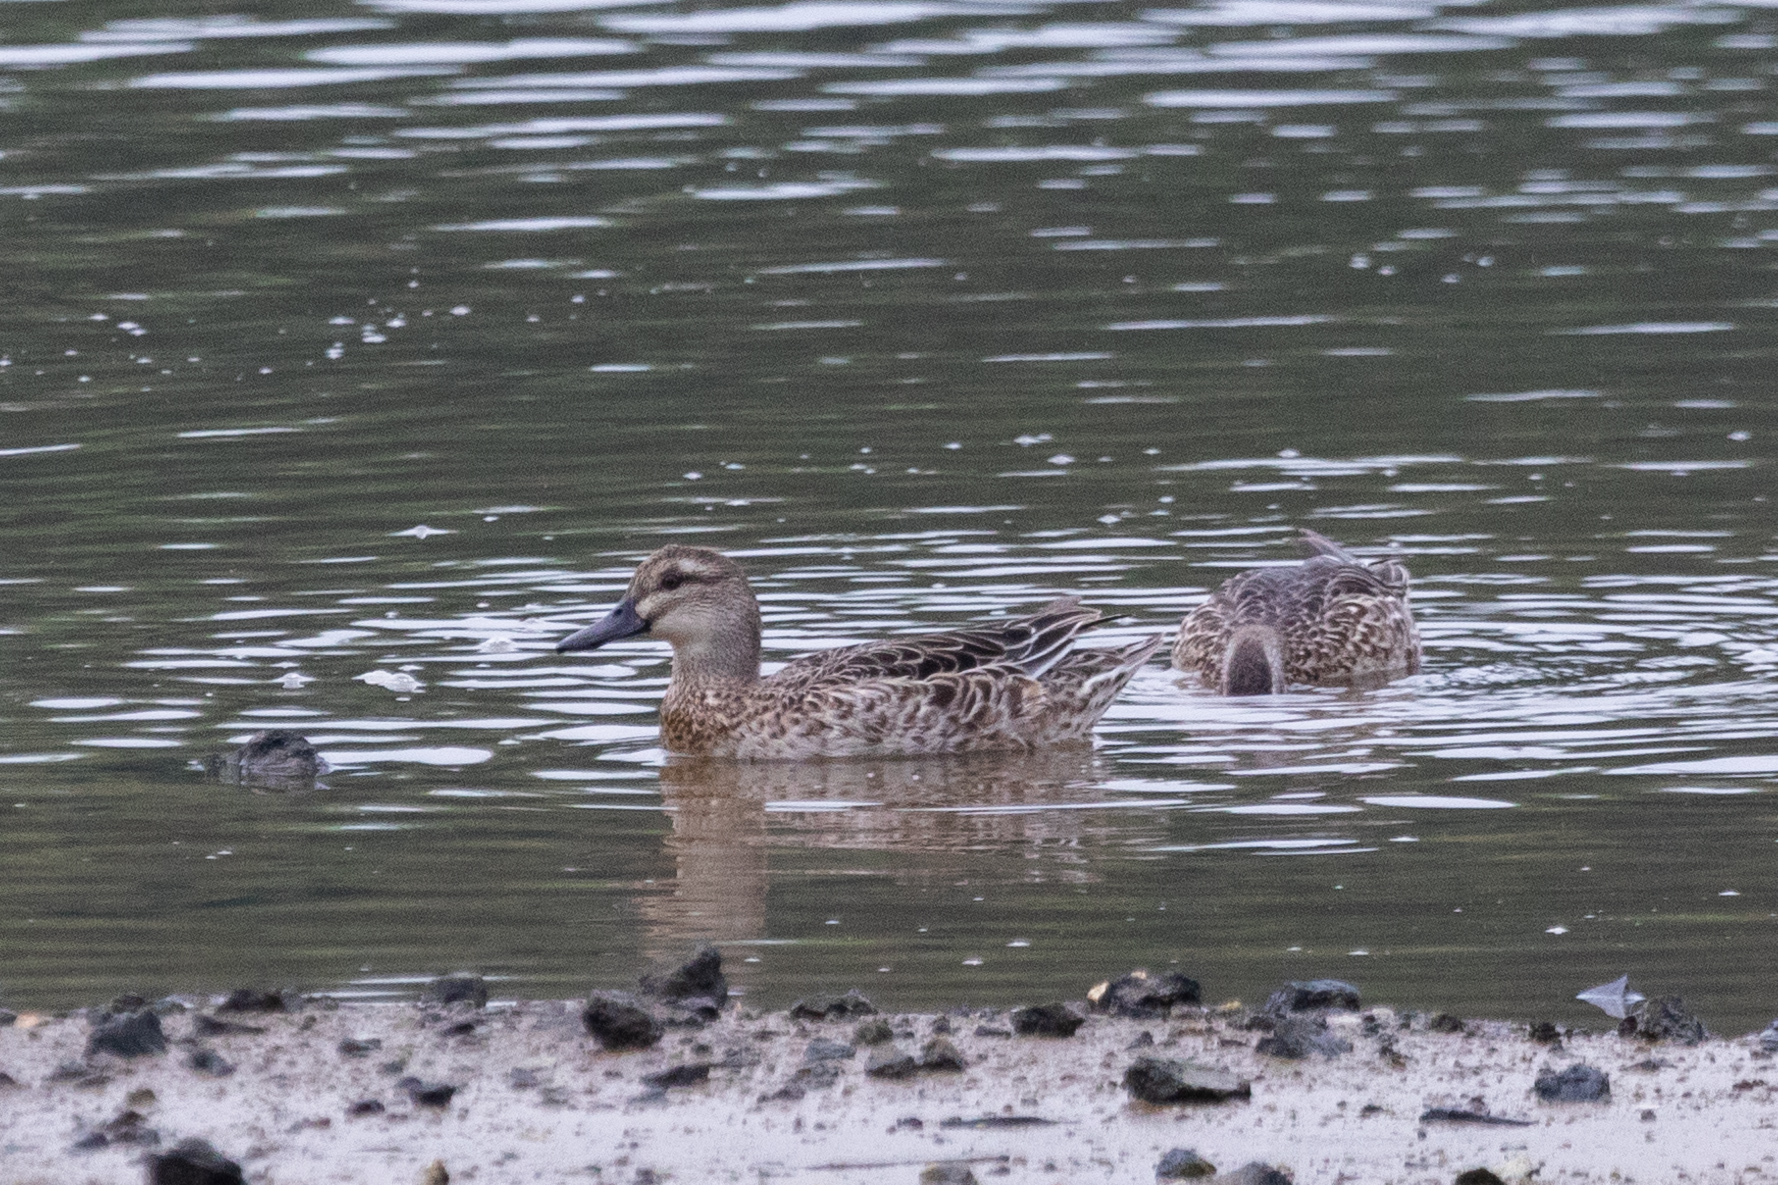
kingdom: Animalia
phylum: Chordata
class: Aves
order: Anseriformes
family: Anatidae
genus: Spatula
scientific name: Spatula querquedula
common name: Garganey
